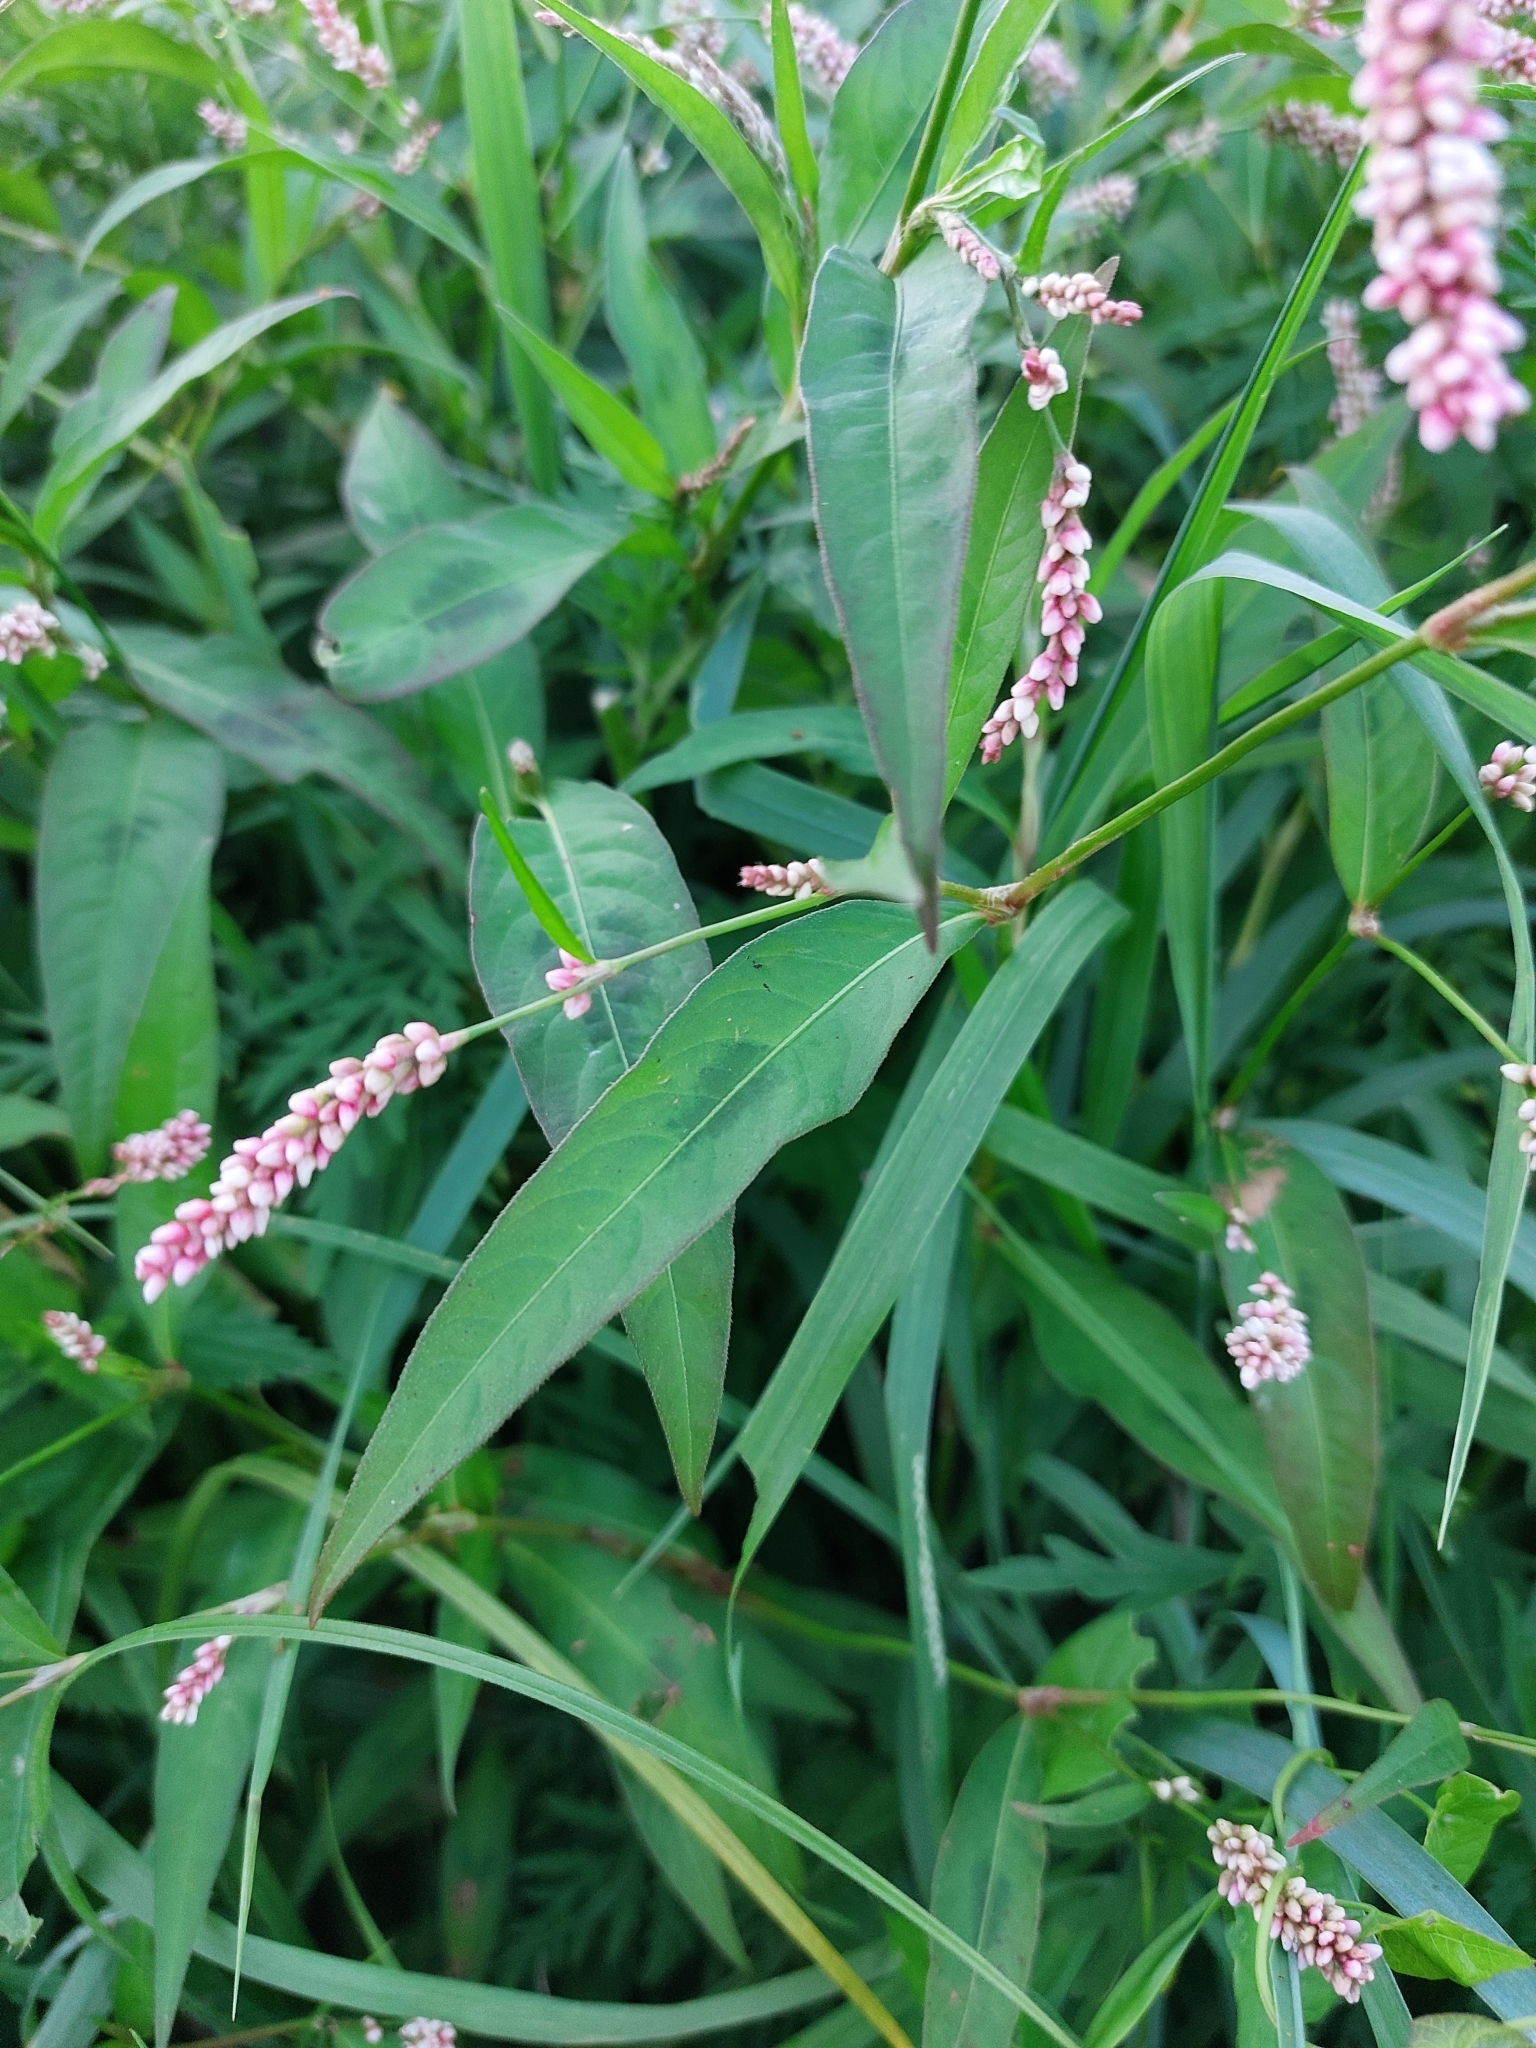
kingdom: Plantae
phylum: Tracheophyta
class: Magnoliopsida
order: Caryophyllales
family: Polygonaceae
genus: Persicaria
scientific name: Persicaria maculosa
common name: Redshank
